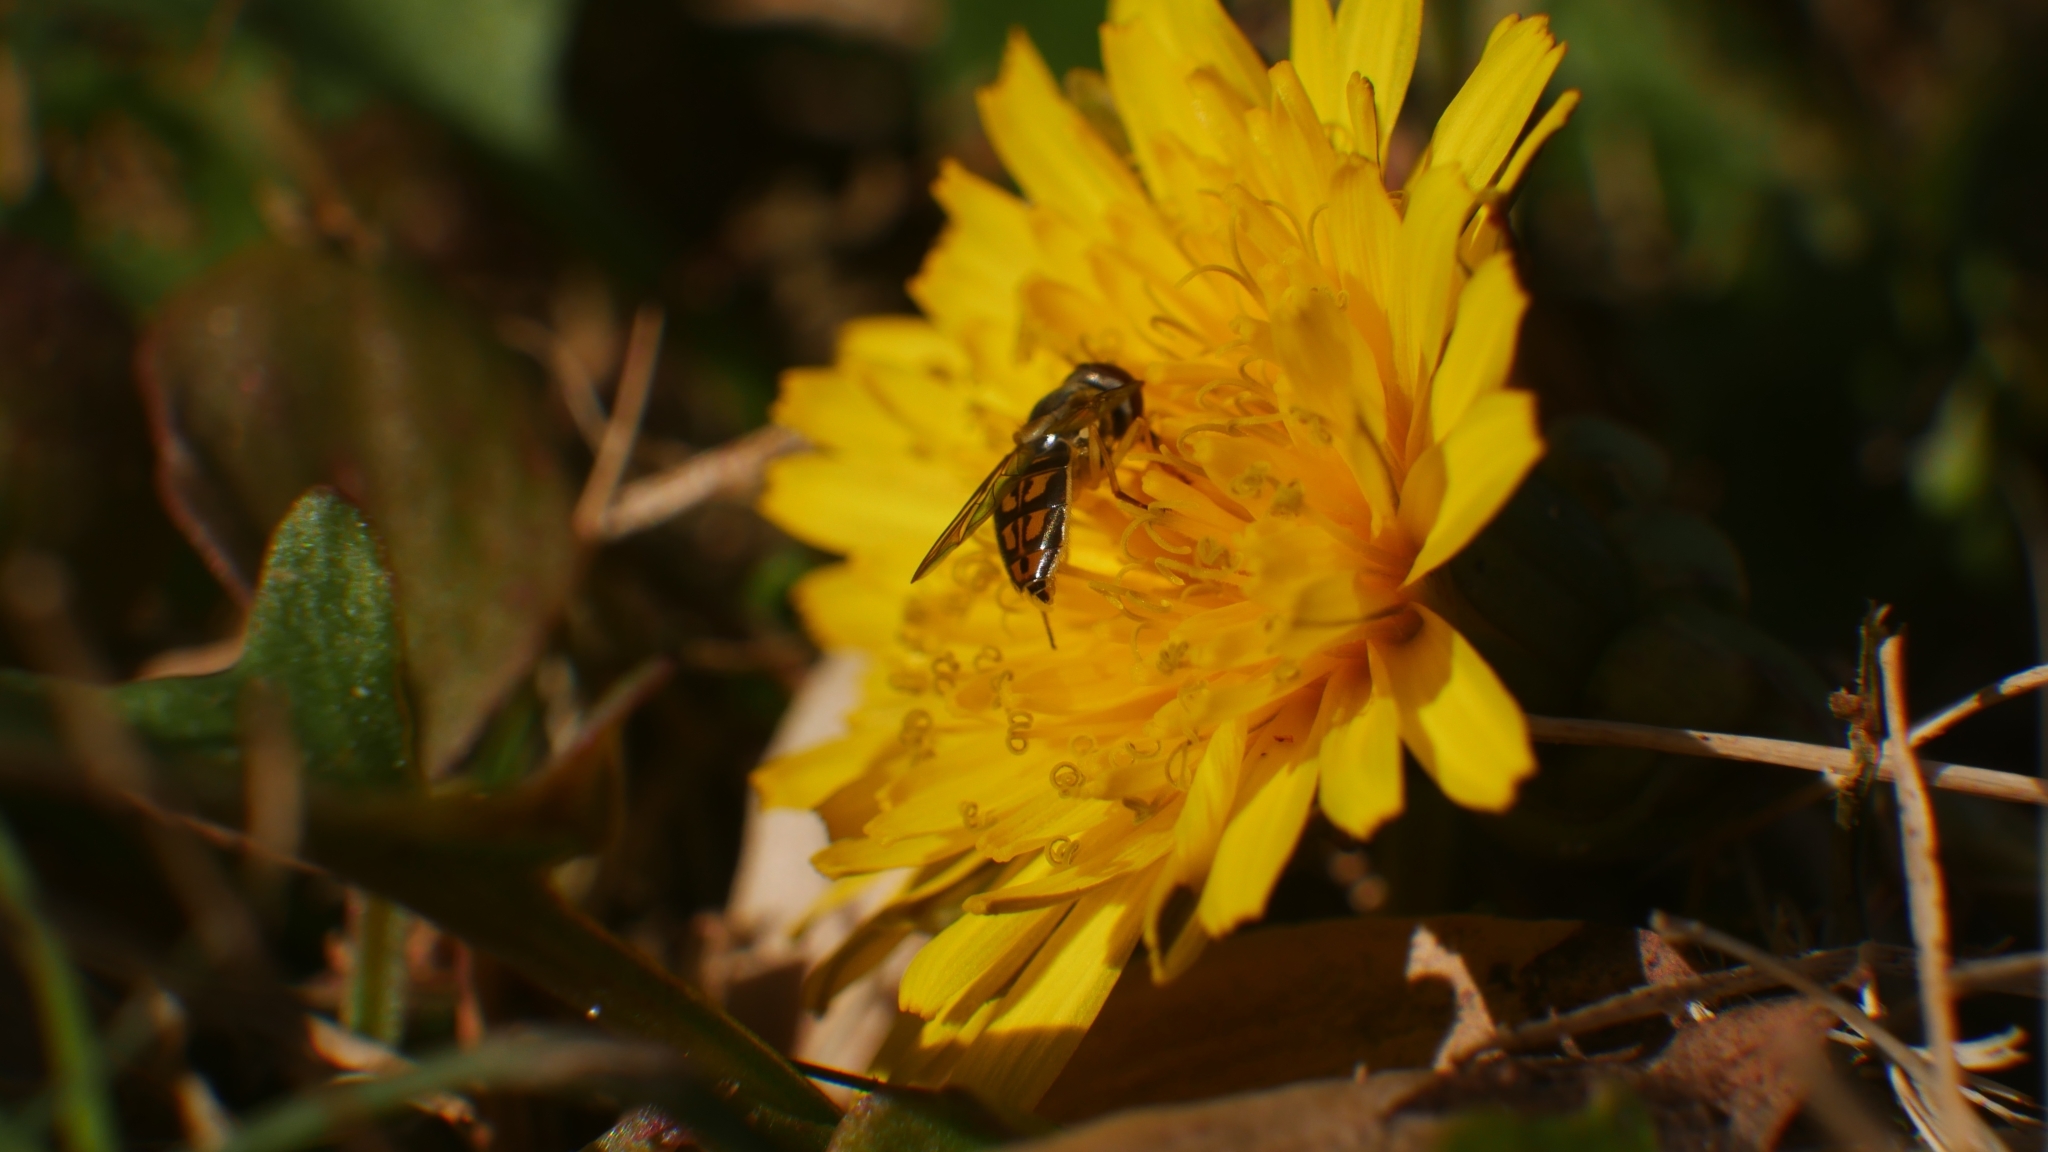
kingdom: Animalia
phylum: Arthropoda
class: Insecta
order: Diptera
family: Syrphidae
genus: Toxomerus
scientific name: Toxomerus marginatus
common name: Syrphid fly
